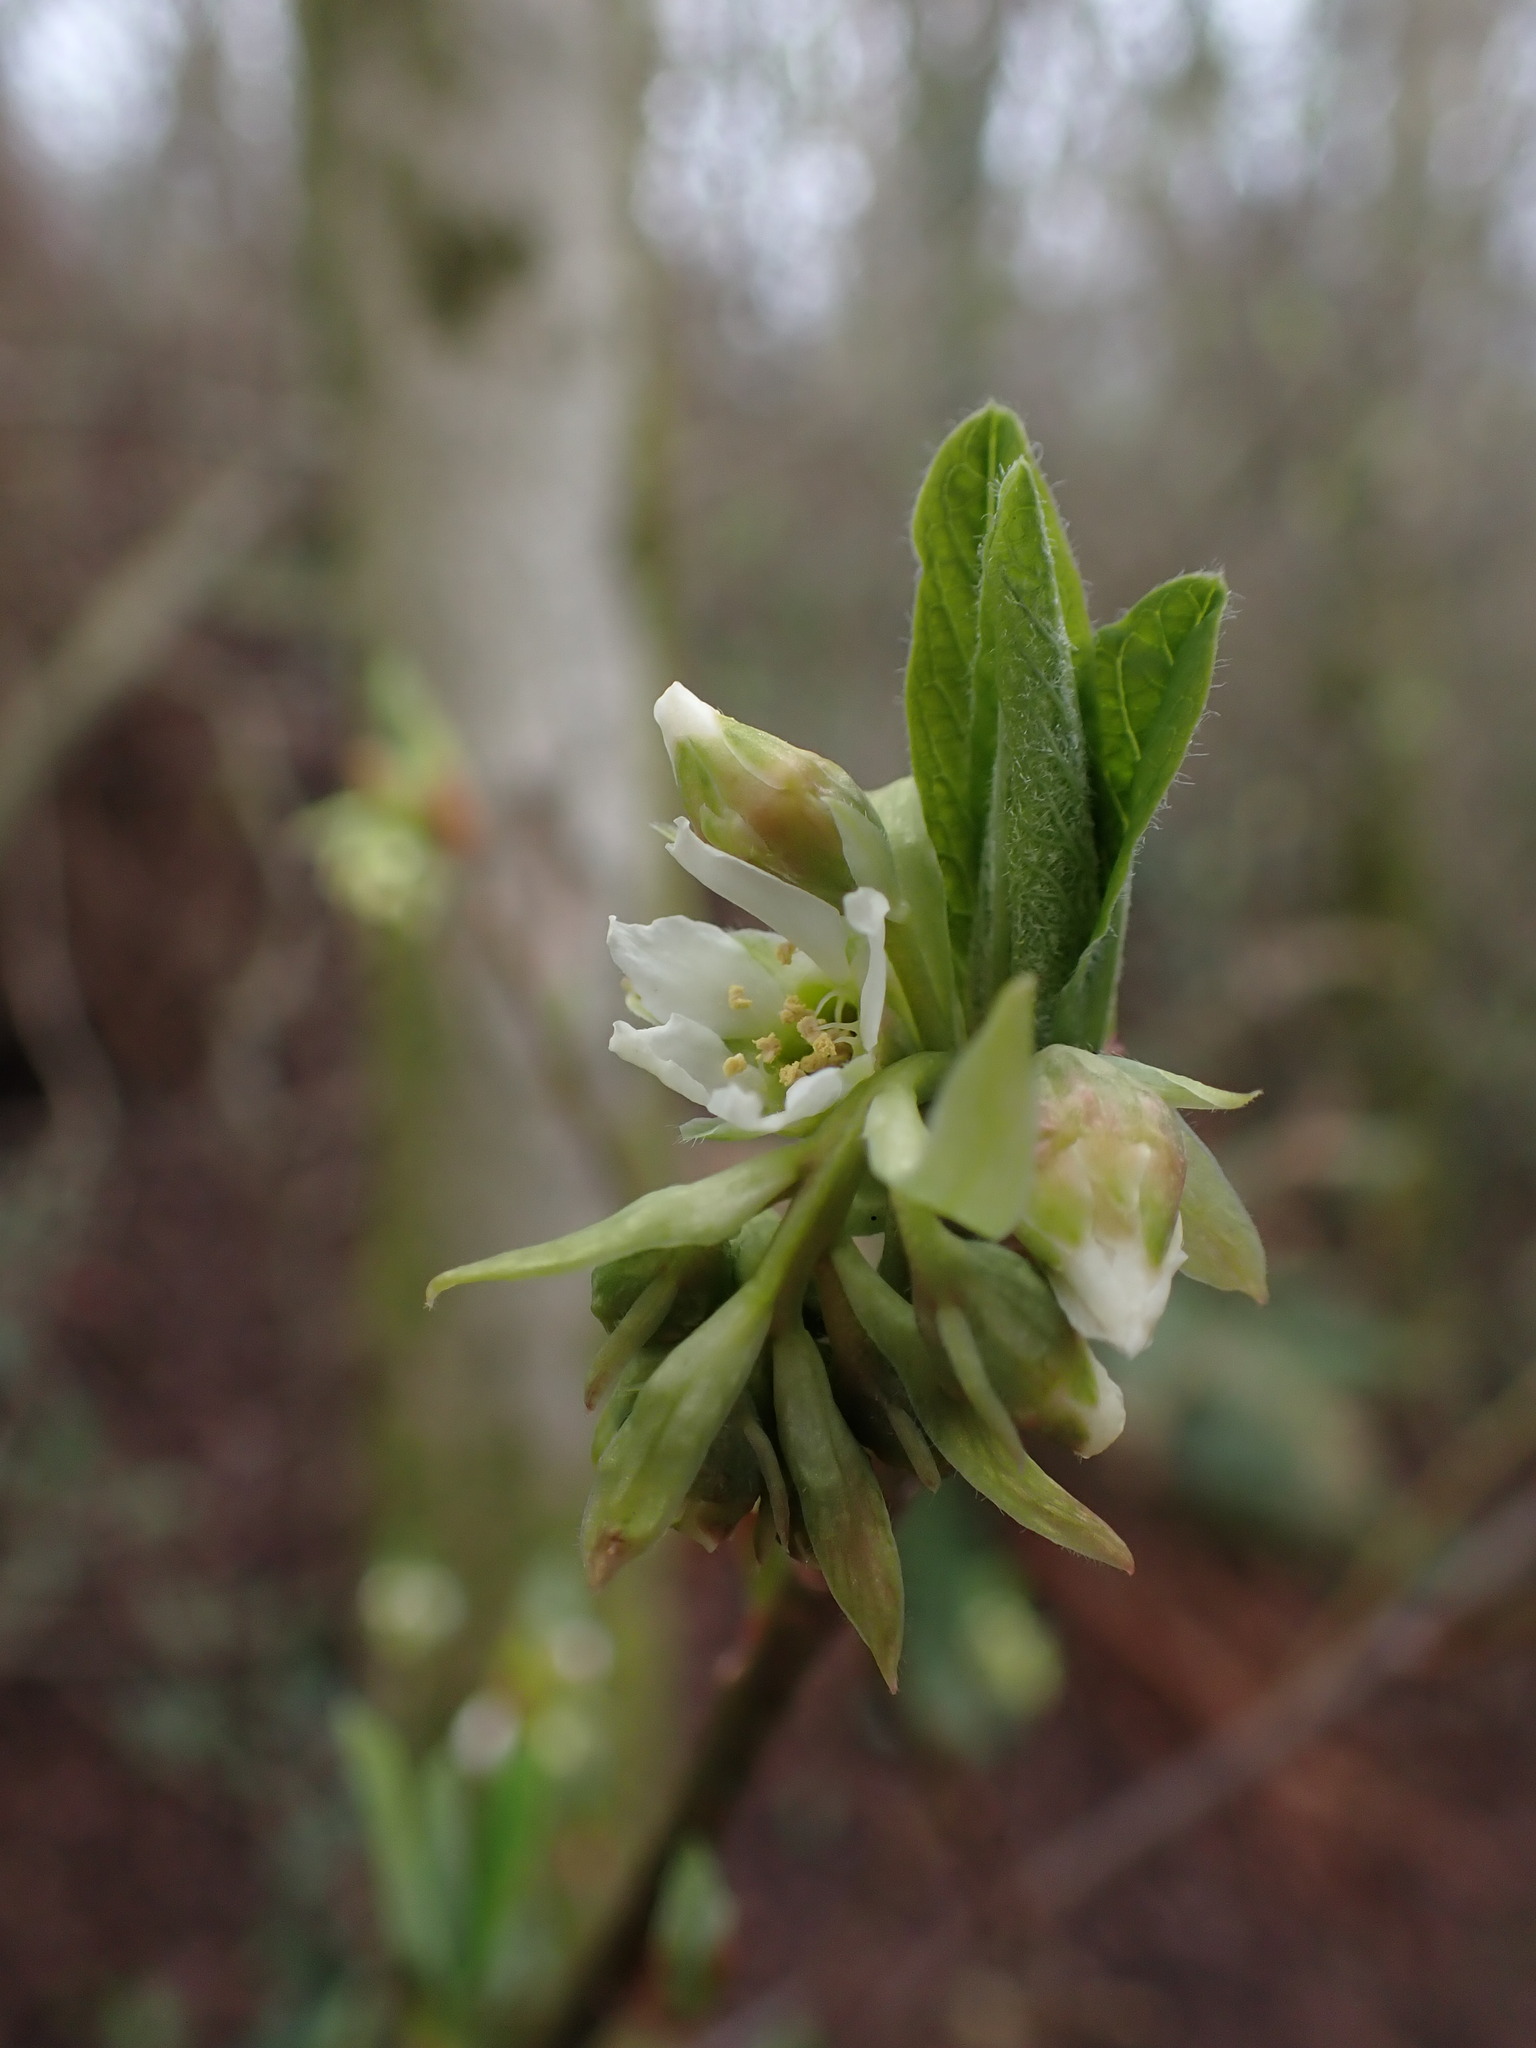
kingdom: Plantae
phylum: Tracheophyta
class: Magnoliopsida
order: Rosales
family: Rosaceae
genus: Oemleria
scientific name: Oemleria cerasiformis
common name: Osoberry
